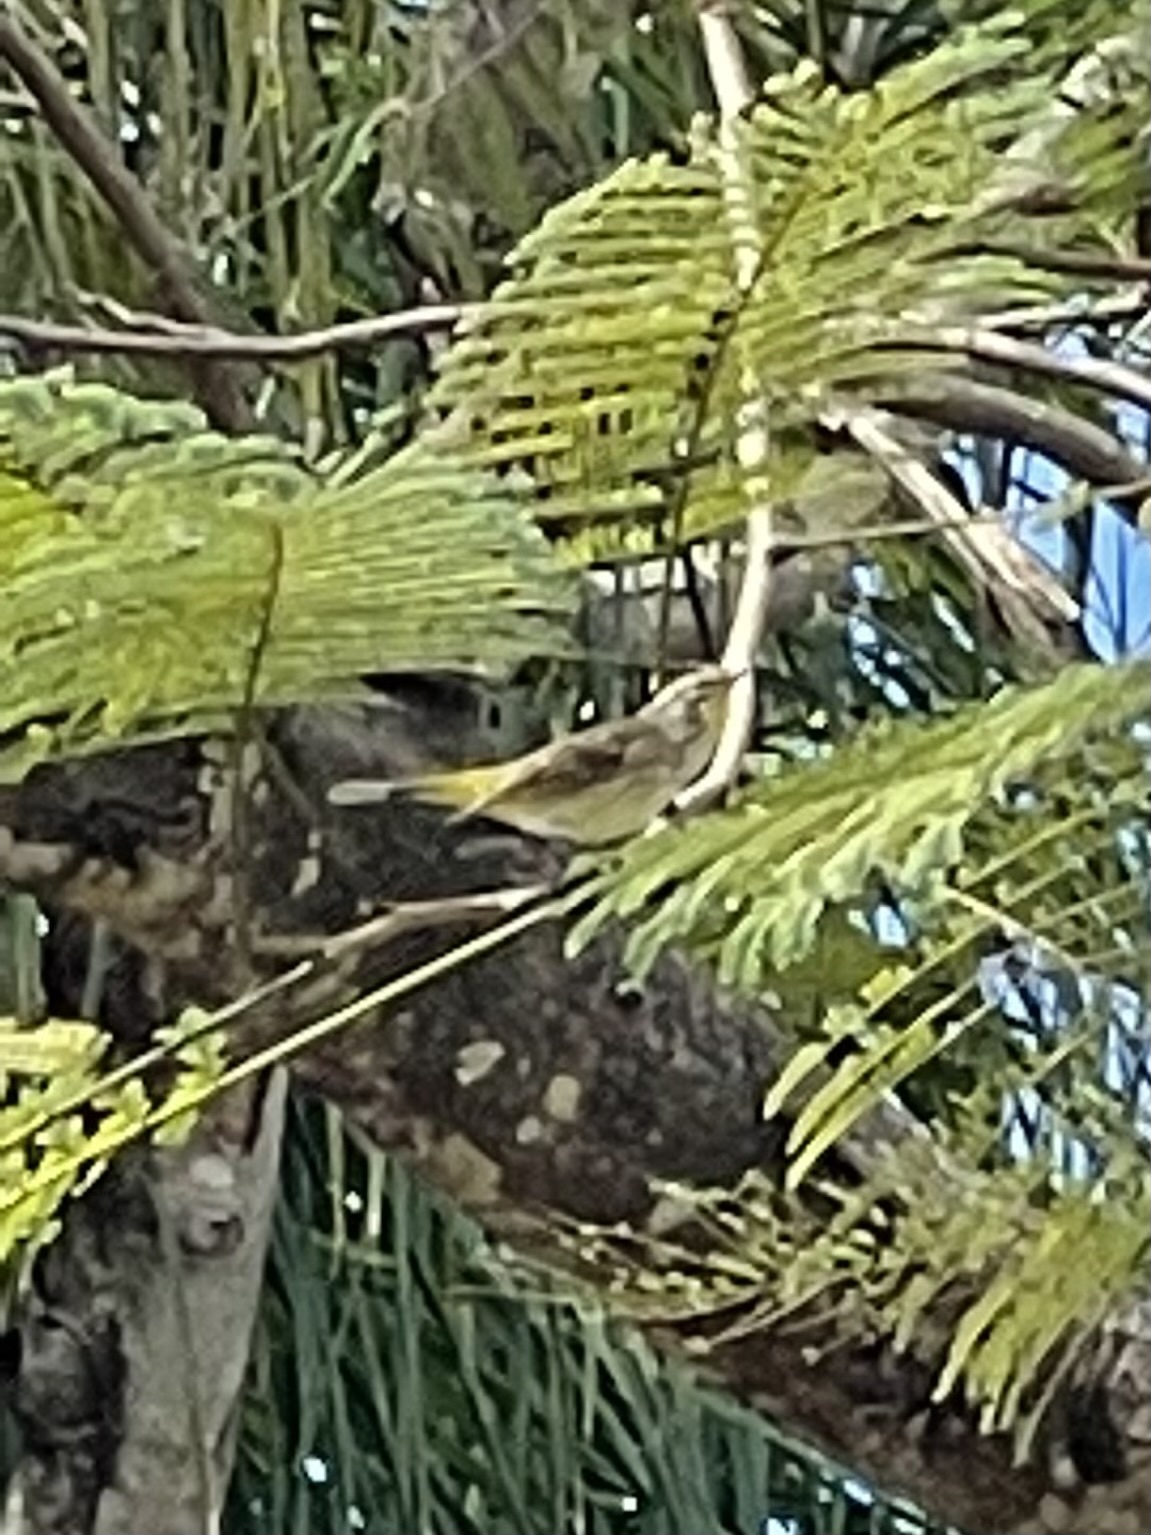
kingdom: Animalia
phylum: Chordata
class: Aves
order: Passeriformes
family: Parulidae
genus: Setophaga
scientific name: Setophaga palmarum
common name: Palm warbler
